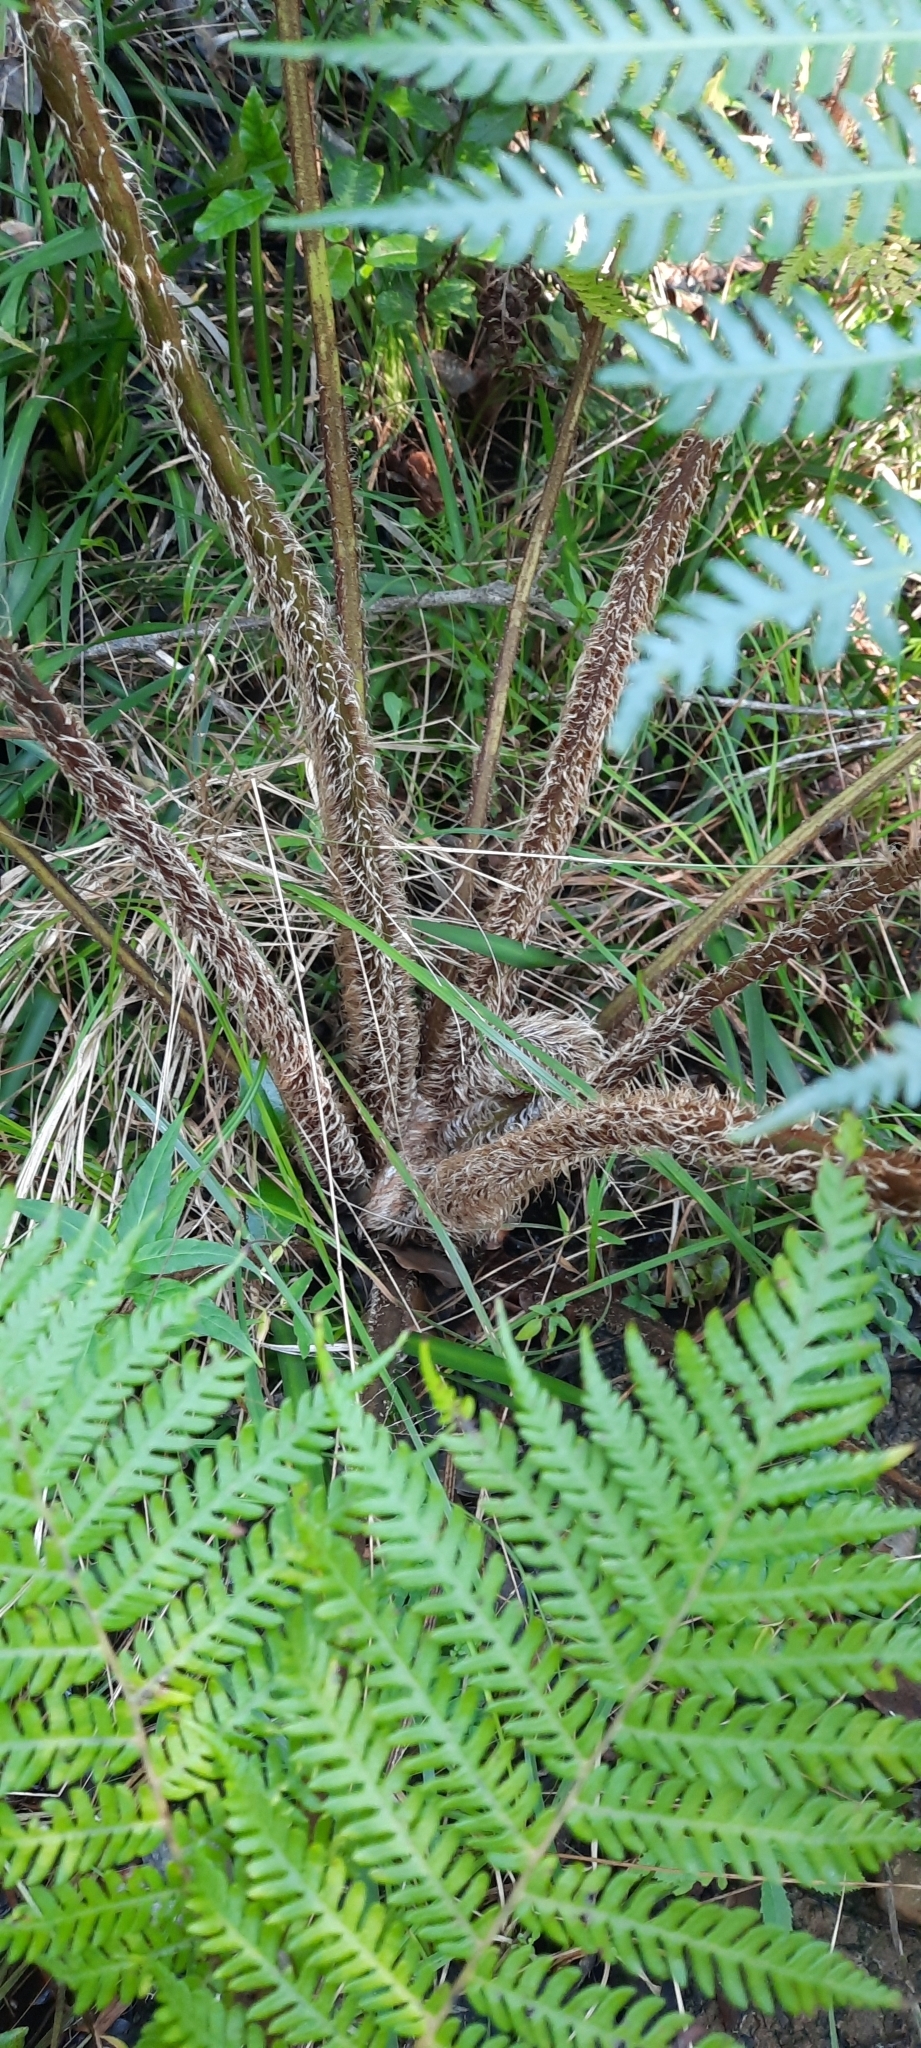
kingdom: Plantae
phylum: Tracheophyta
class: Polypodiopsida
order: Cyatheales
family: Cyatheaceae
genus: Sphaeropteris
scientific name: Sphaeropteris cooperi
